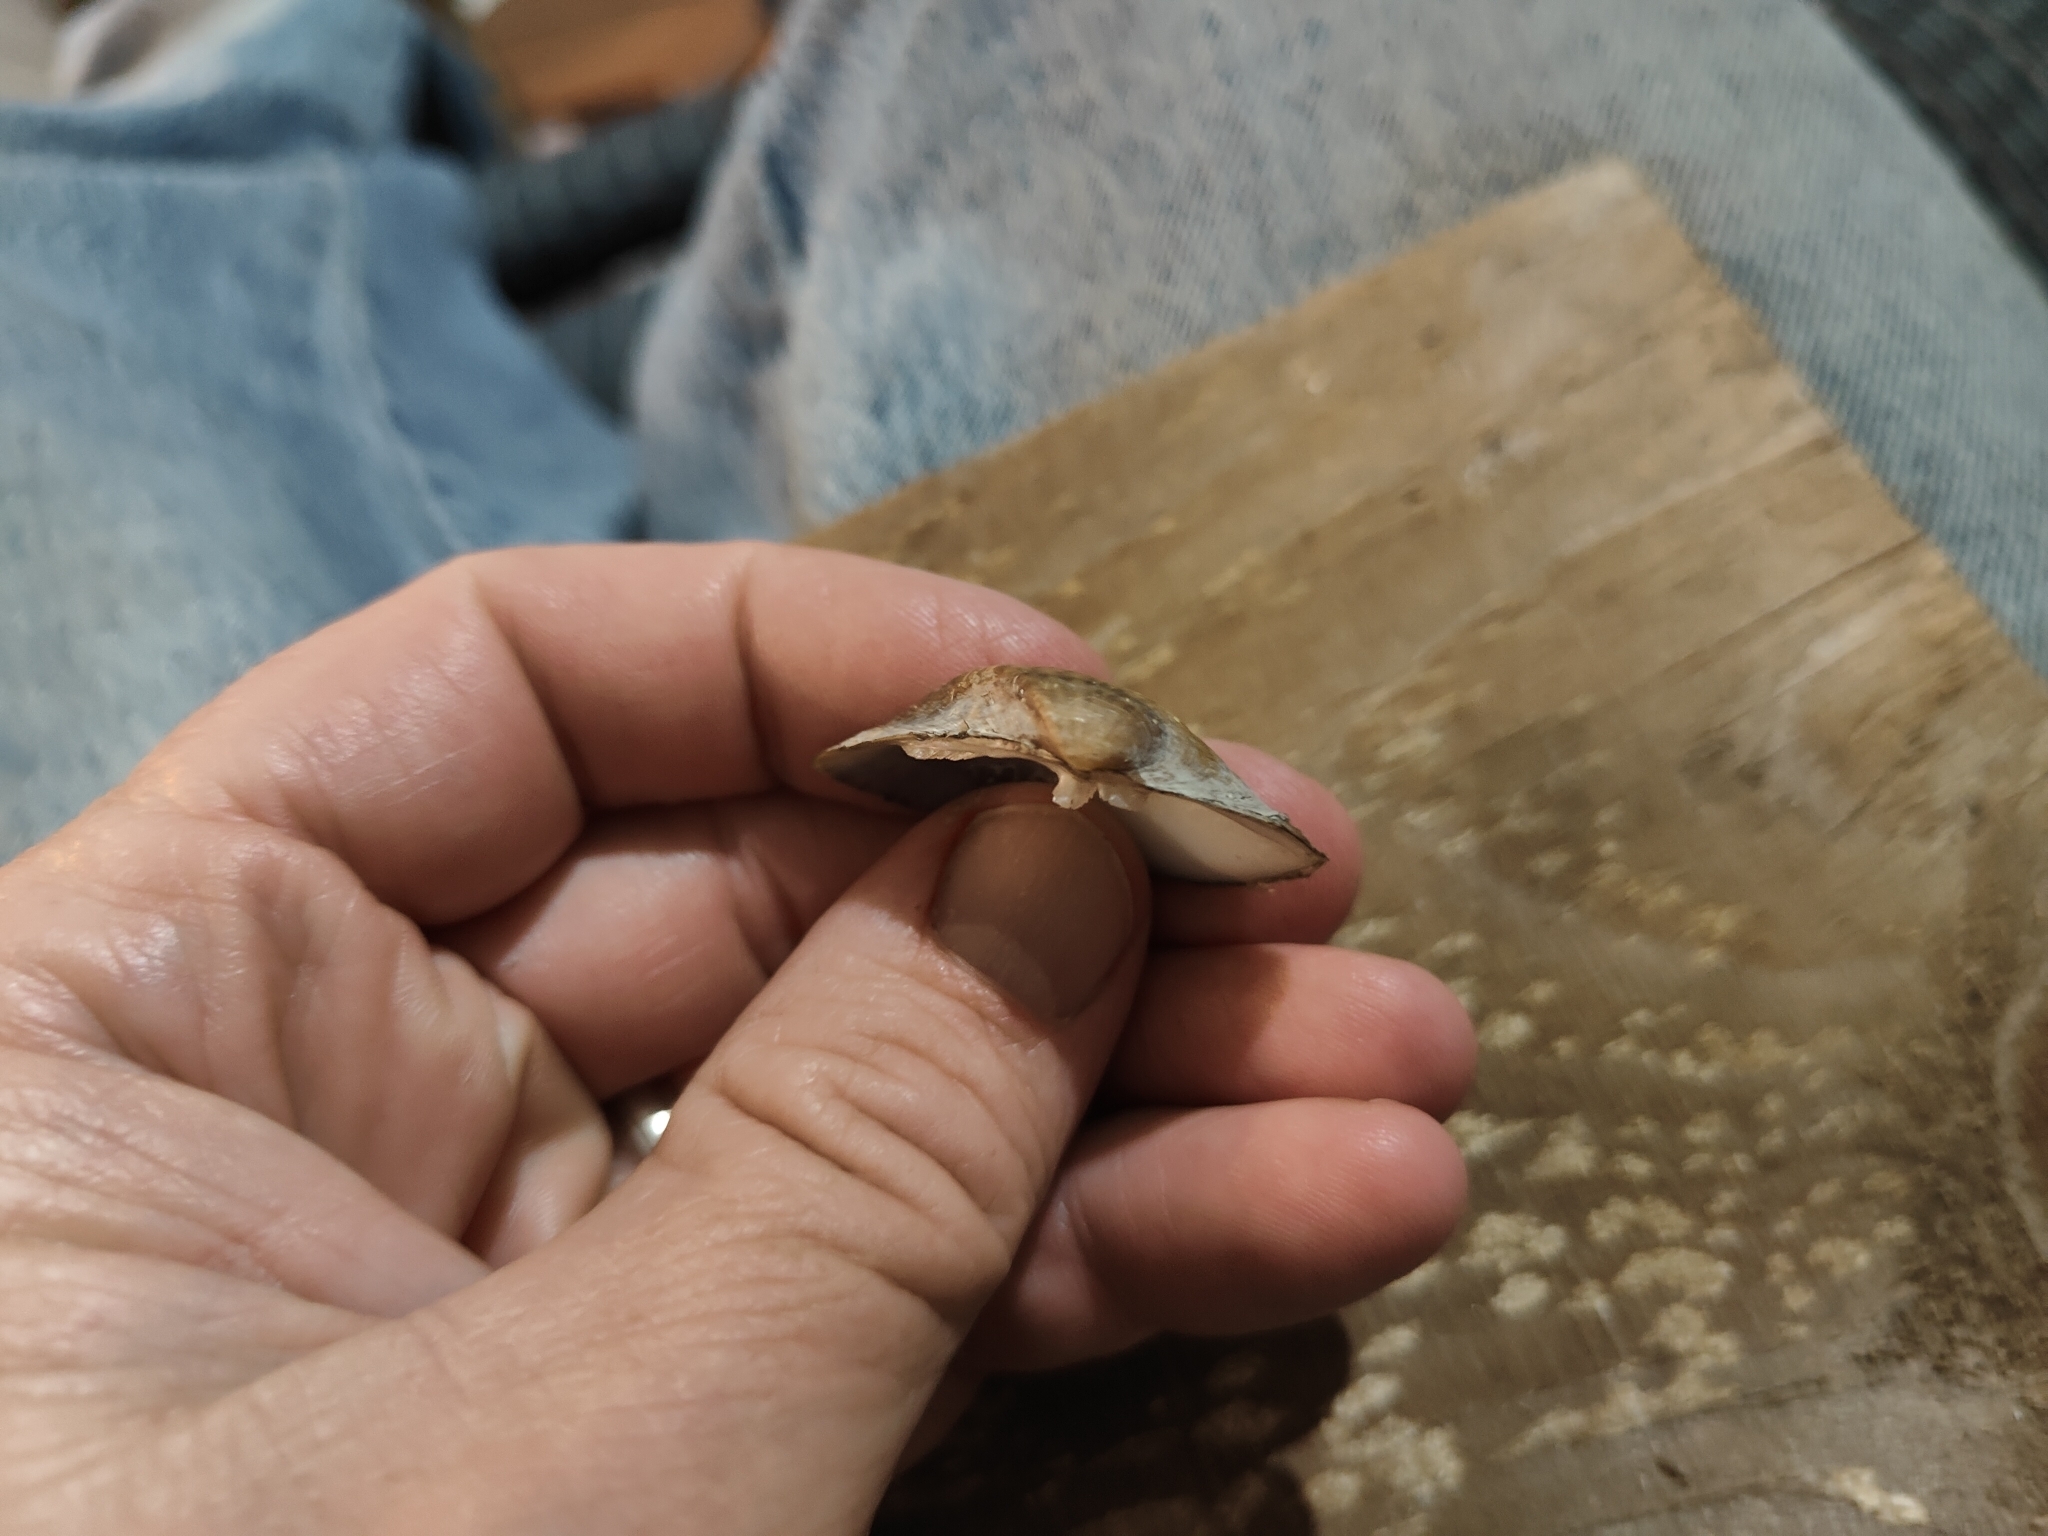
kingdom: Animalia
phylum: Mollusca
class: Bivalvia
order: Unionida
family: Unionidae
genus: Truncilla
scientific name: Truncilla truncata
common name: Deertoe
